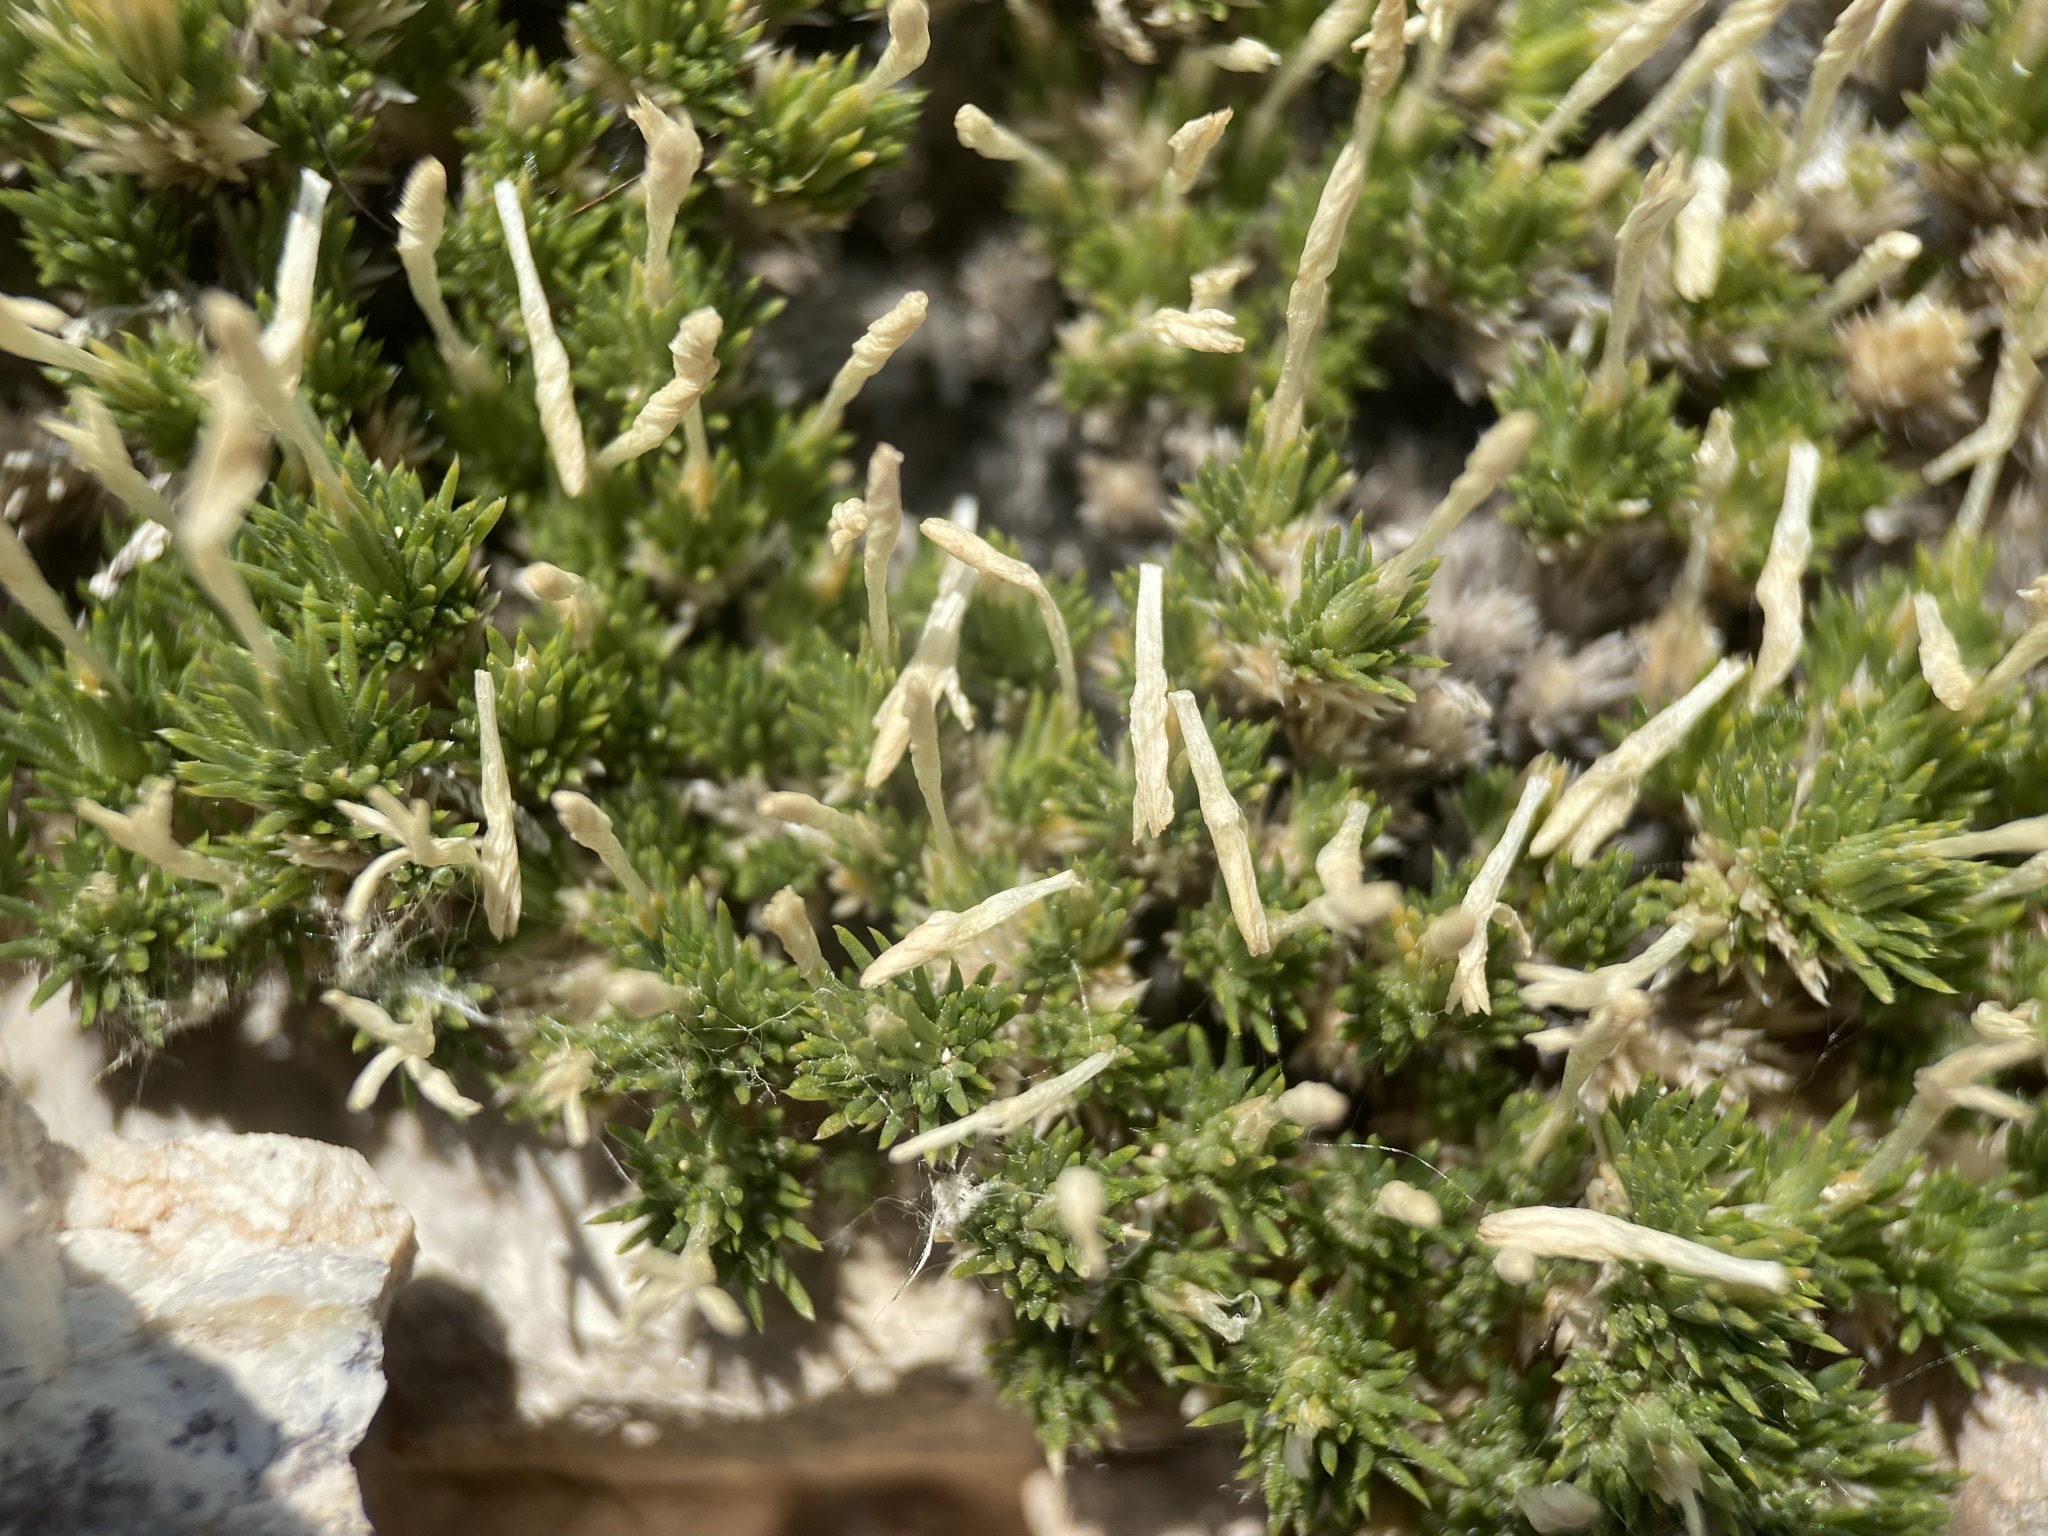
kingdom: Plantae
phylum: Tracheophyta
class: Magnoliopsida
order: Ericales
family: Polemoniaceae
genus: Linanthus
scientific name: Linanthus caespitosus
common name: Mat prickly phlox
